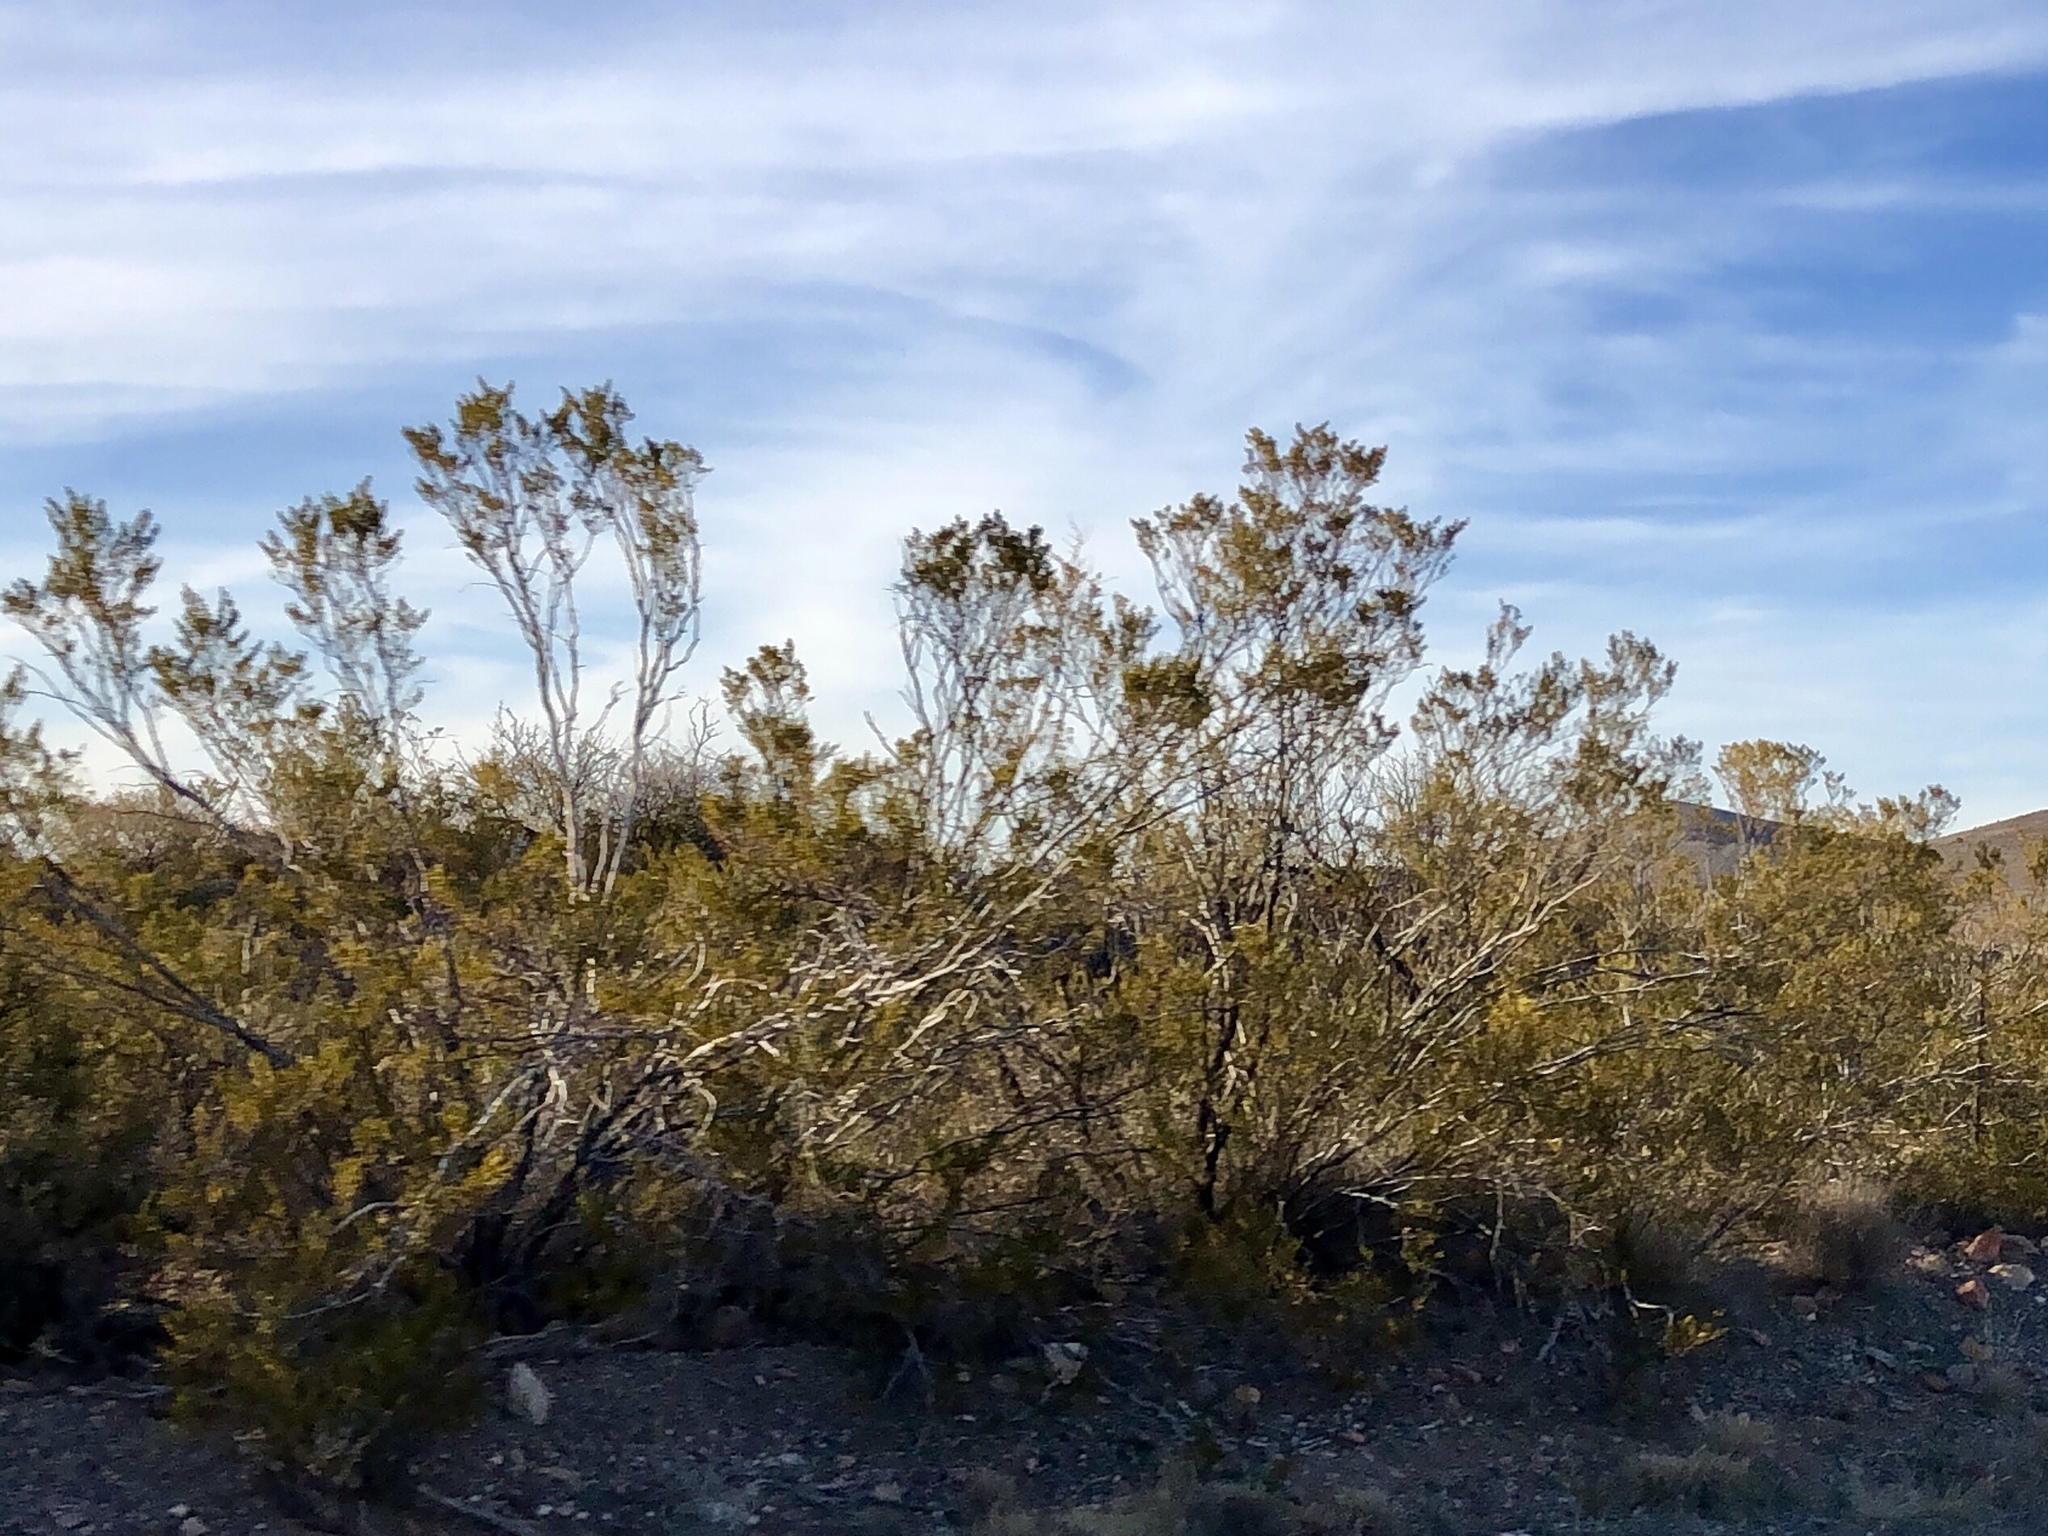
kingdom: Plantae
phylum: Tracheophyta
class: Magnoliopsida
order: Zygophyllales
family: Zygophyllaceae
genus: Larrea
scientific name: Larrea tridentata
